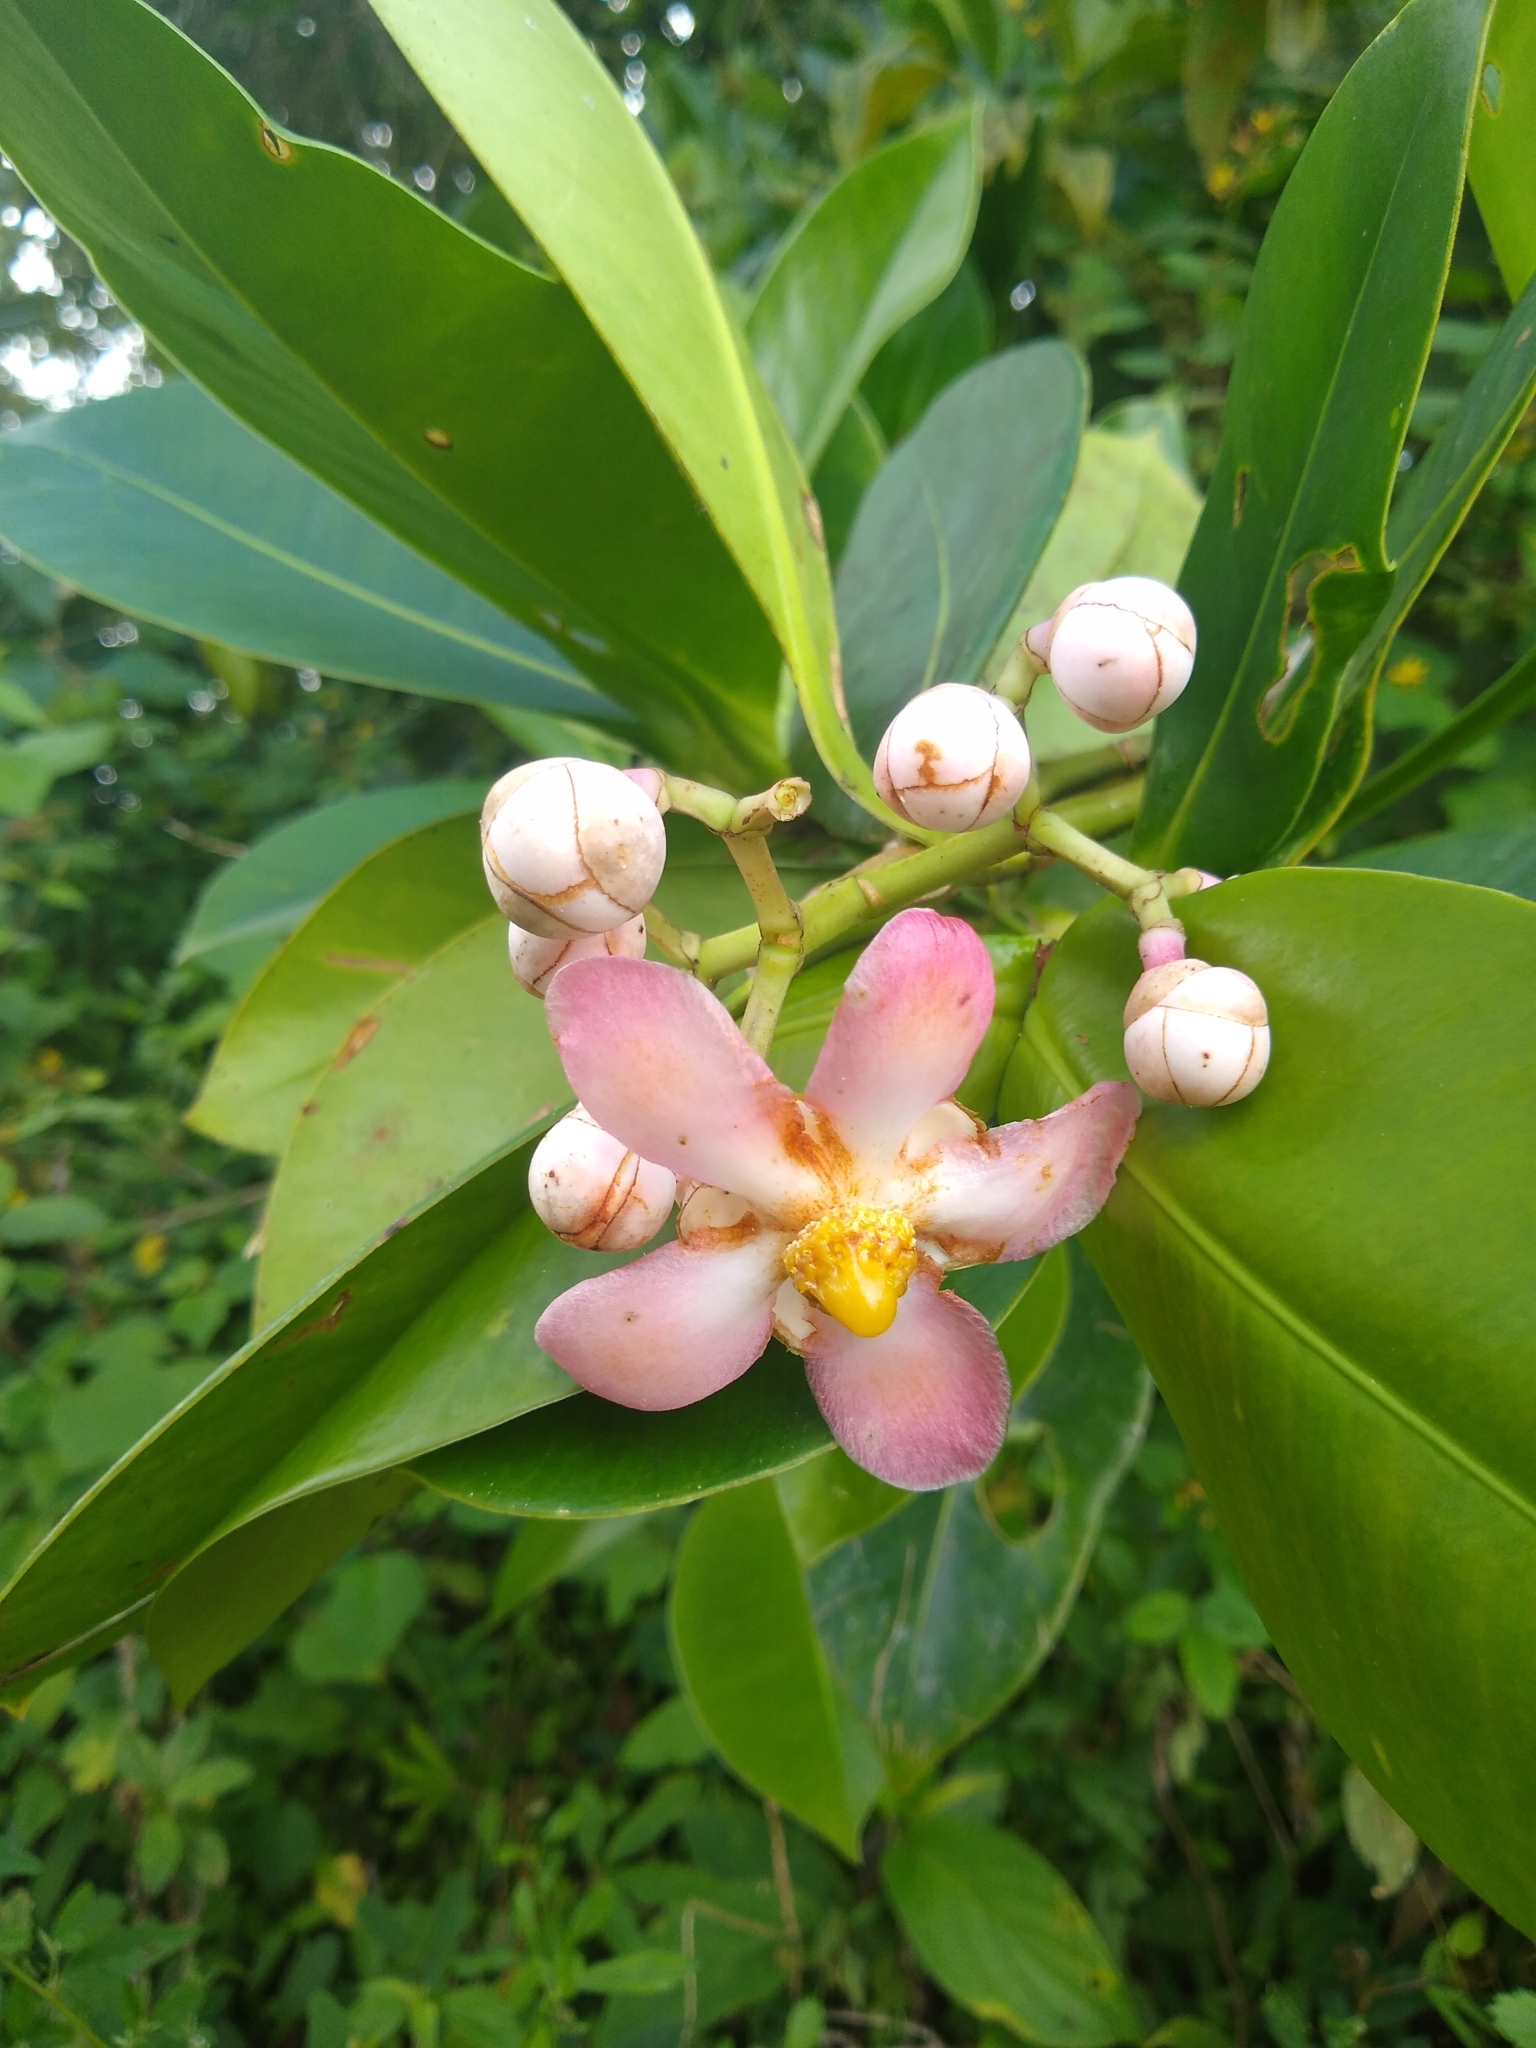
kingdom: Plantae
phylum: Tracheophyta
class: Magnoliopsida
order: Malpighiales
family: Clusiaceae
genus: Clusia
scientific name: Clusia hydrogera
